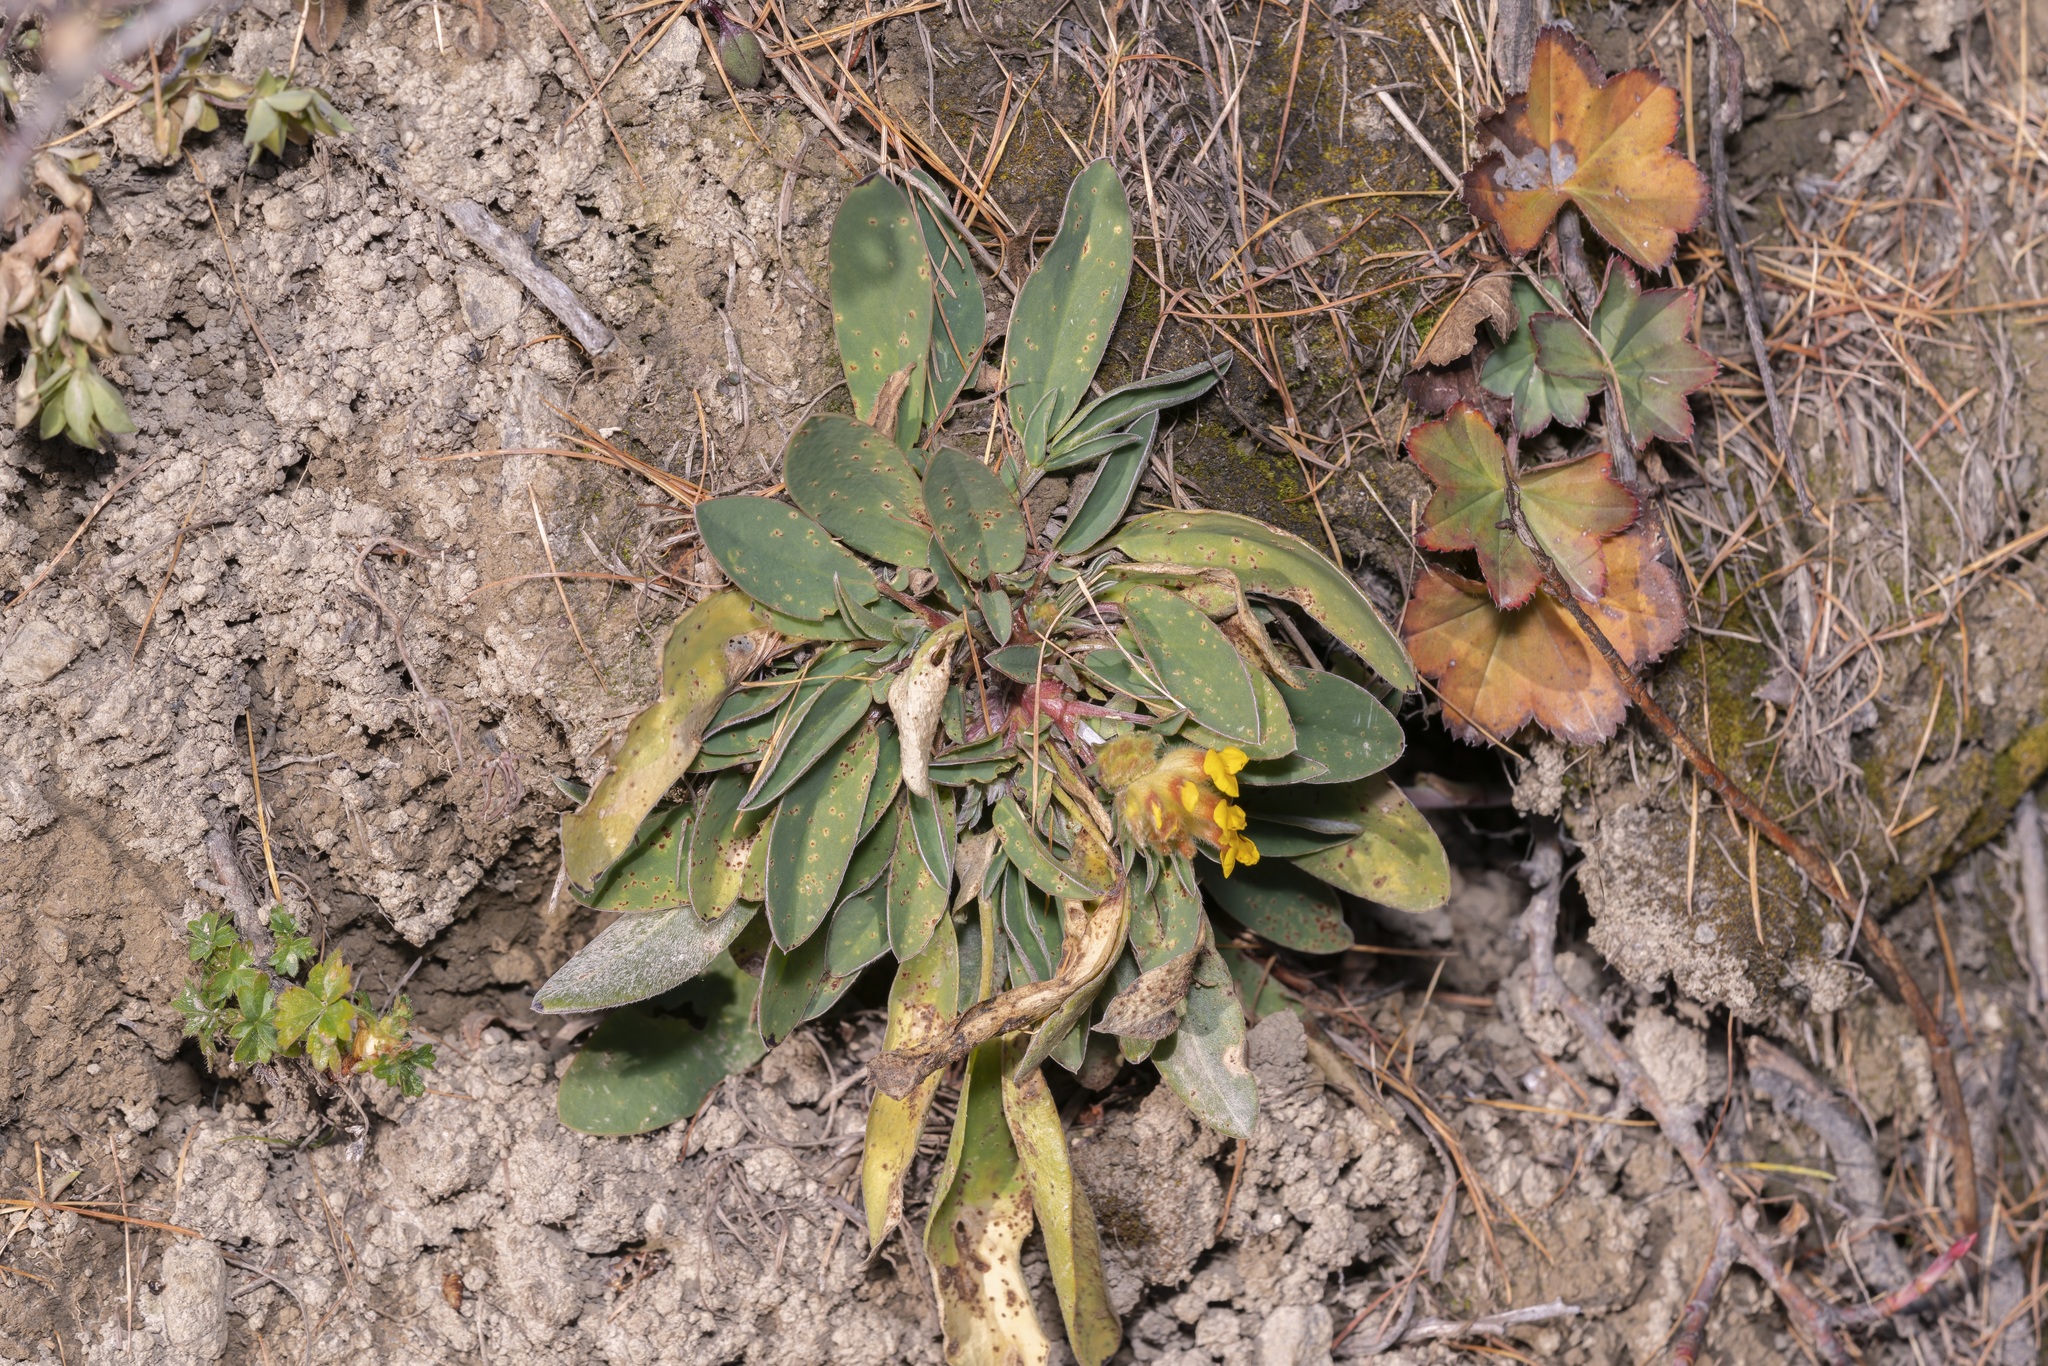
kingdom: Plantae
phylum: Tracheophyta
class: Magnoliopsida
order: Fabales
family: Fabaceae
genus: Anthyllis
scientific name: Anthyllis vulneraria
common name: Kidney vetch
